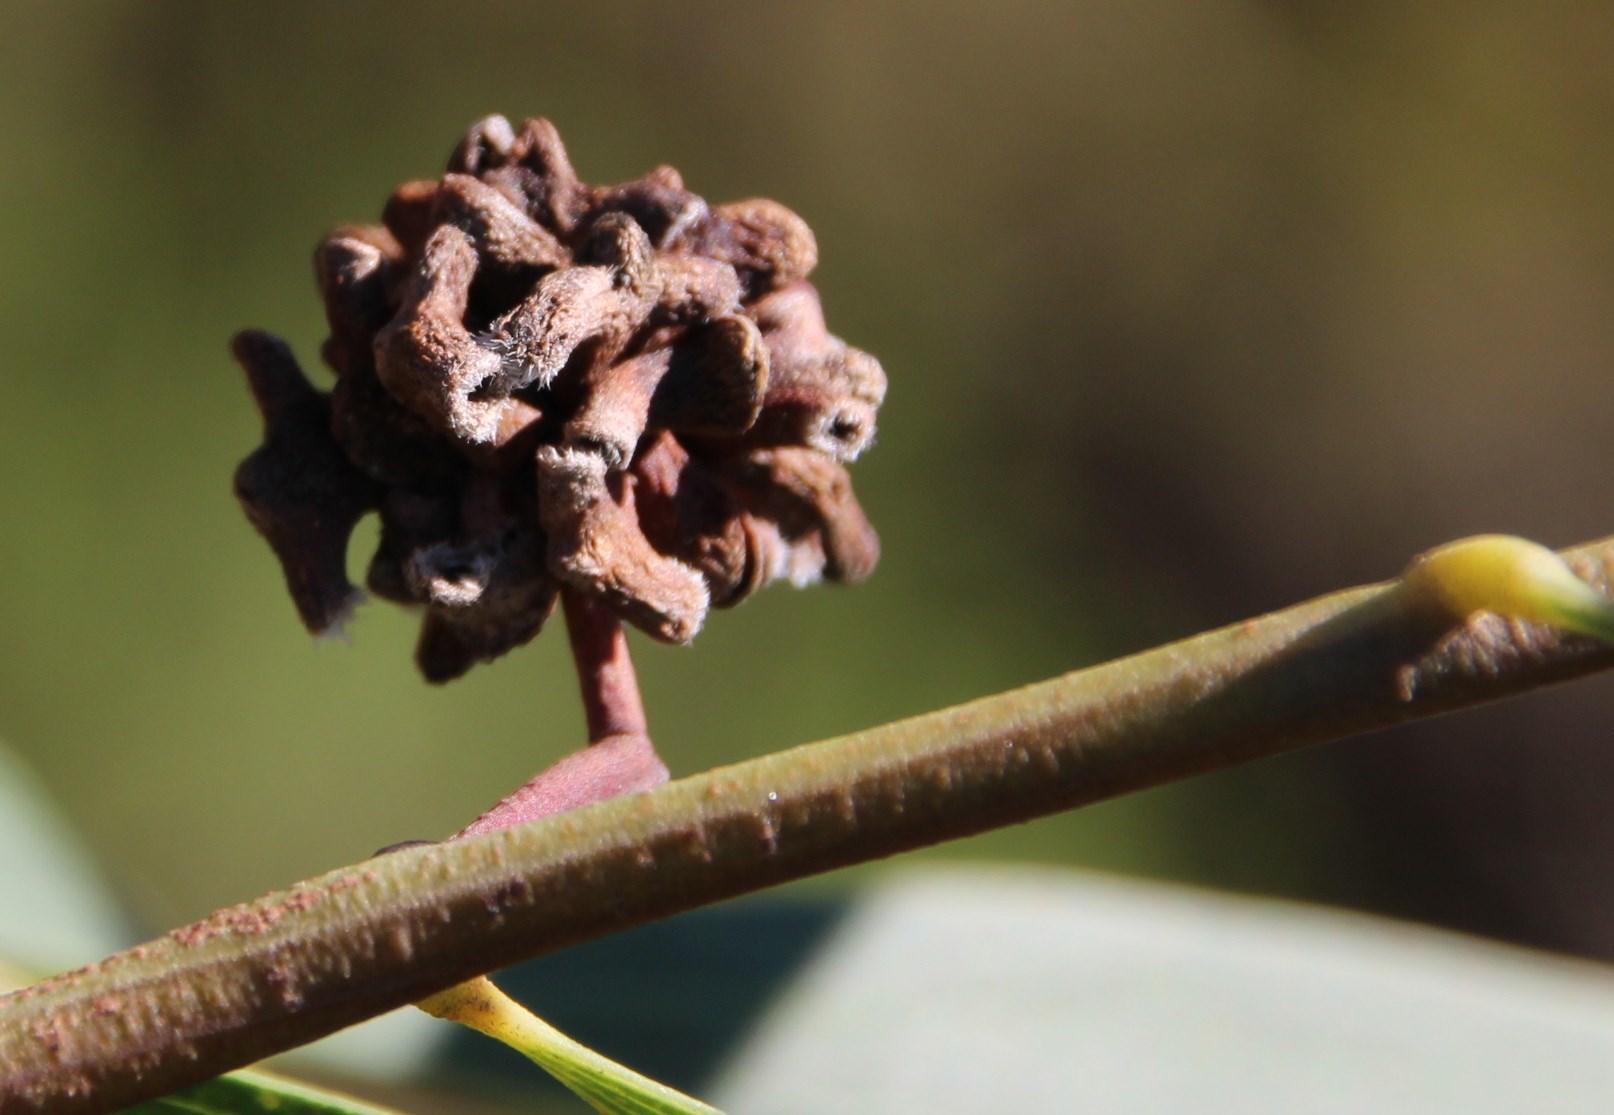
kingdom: Animalia
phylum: Arthropoda
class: Insecta
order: Diptera
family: Cecidomyiidae
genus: Dasineura
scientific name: Dasineura dielsi
